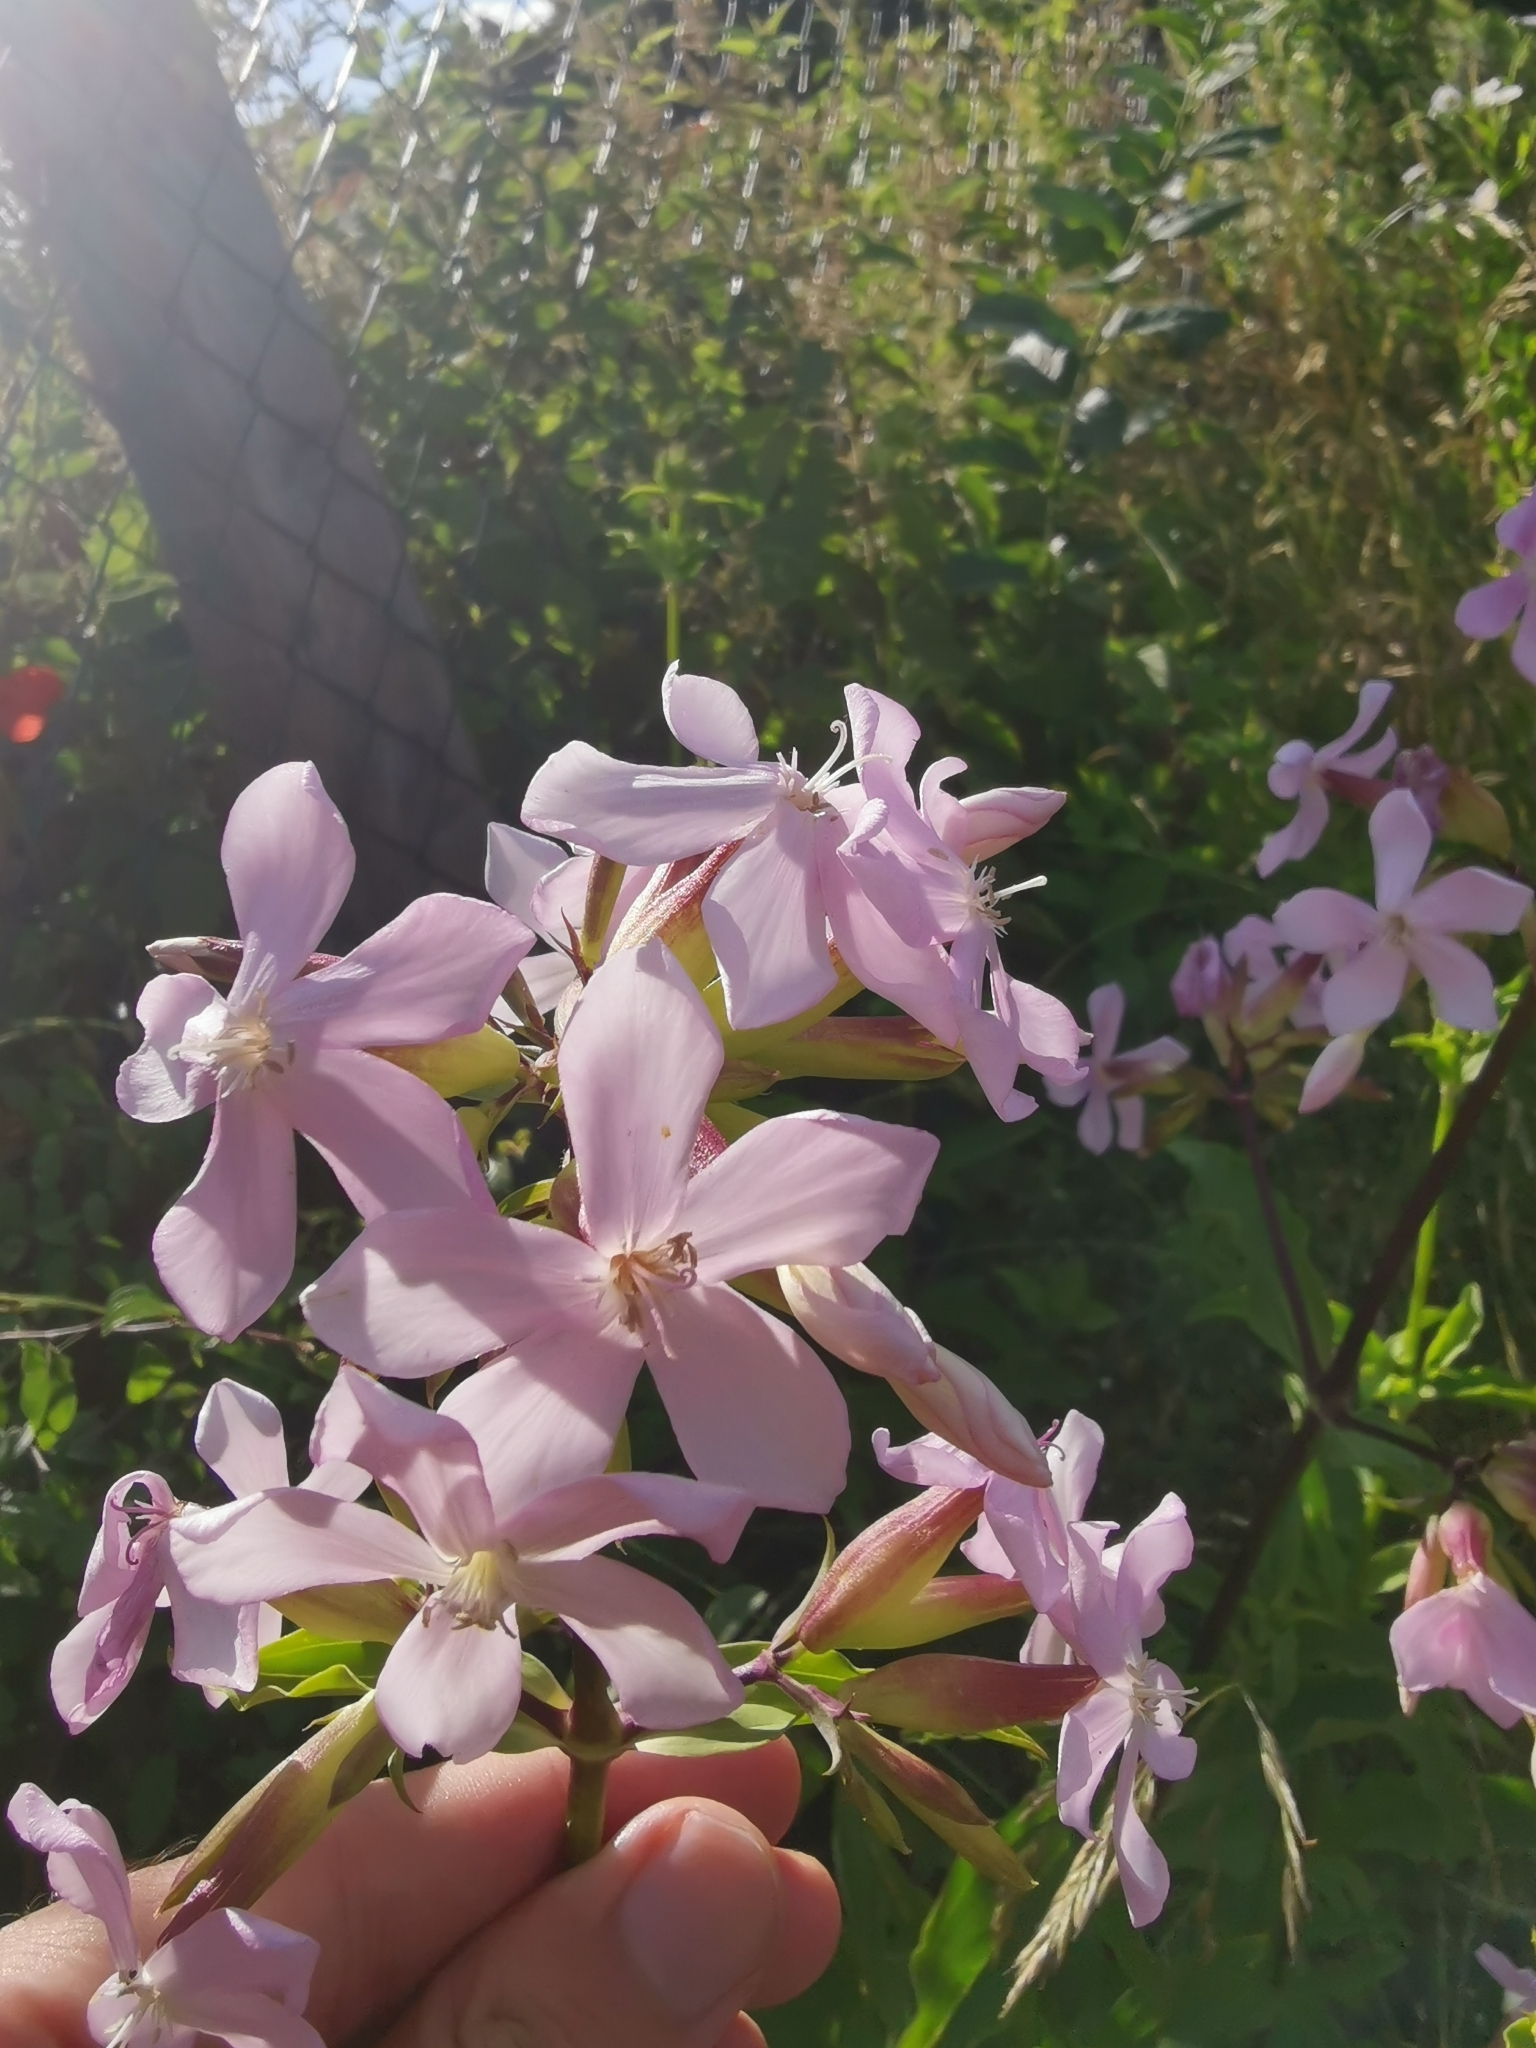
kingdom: Plantae
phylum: Tracheophyta
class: Magnoliopsida
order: Caryophyllales
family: Caryophyllaceae
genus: Saponaria
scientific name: Saponaria officinalis
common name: Soapwort
